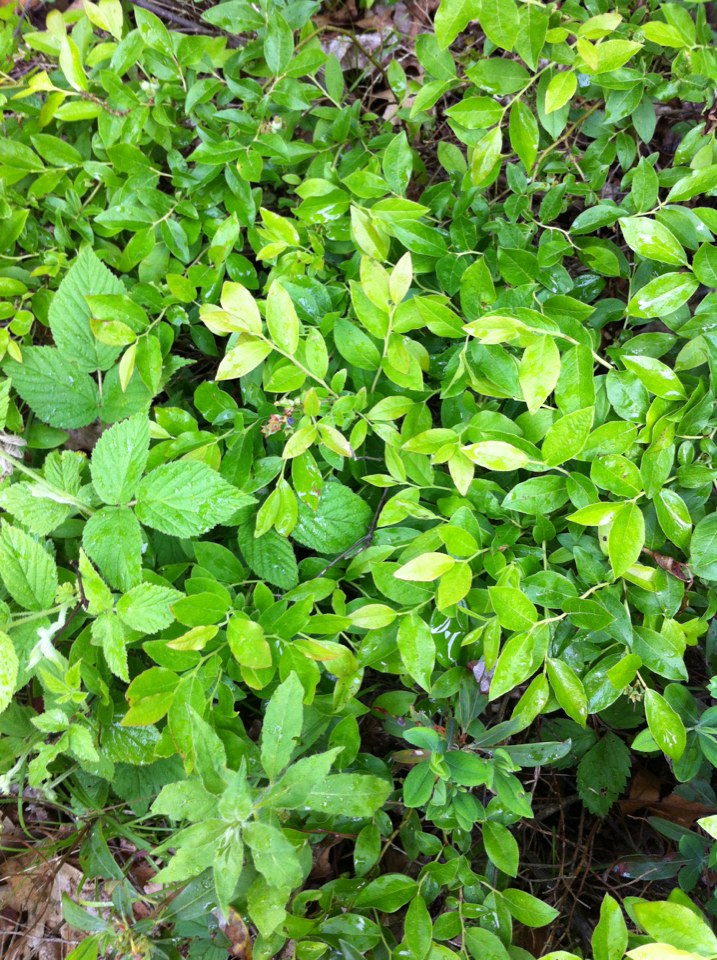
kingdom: Plantae
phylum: Tracheophyta
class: Magnoliopsida
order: Ericales
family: Ericaceae
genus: Vaccinium
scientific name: Vaccinium angustifolium
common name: Early lowbush blueberry
